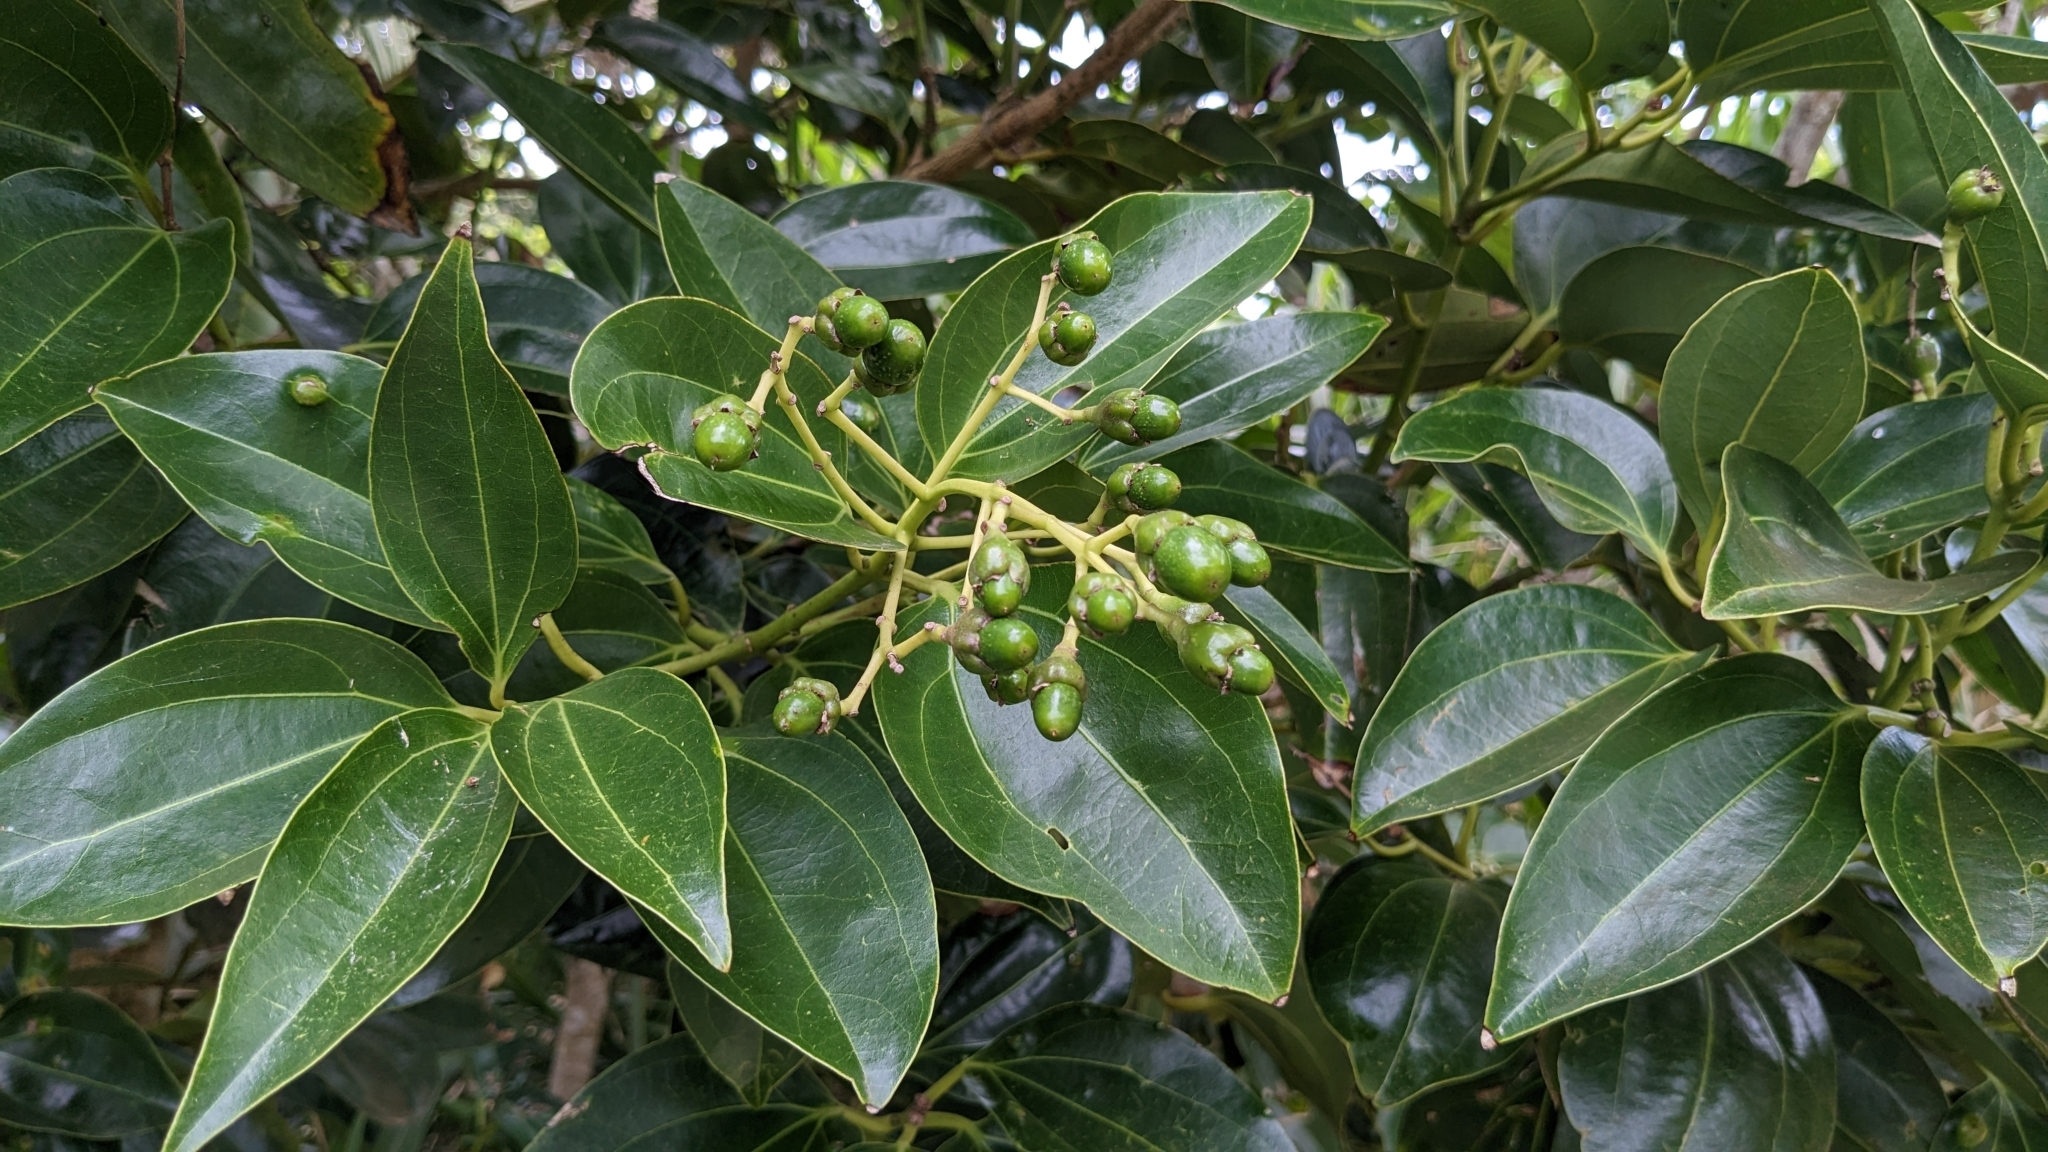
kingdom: Plantae
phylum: Tracheophyta
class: Magnoliopsida
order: Laurales
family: Lauraceae
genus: Cinnamomum
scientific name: Cinnamomum kotoense
